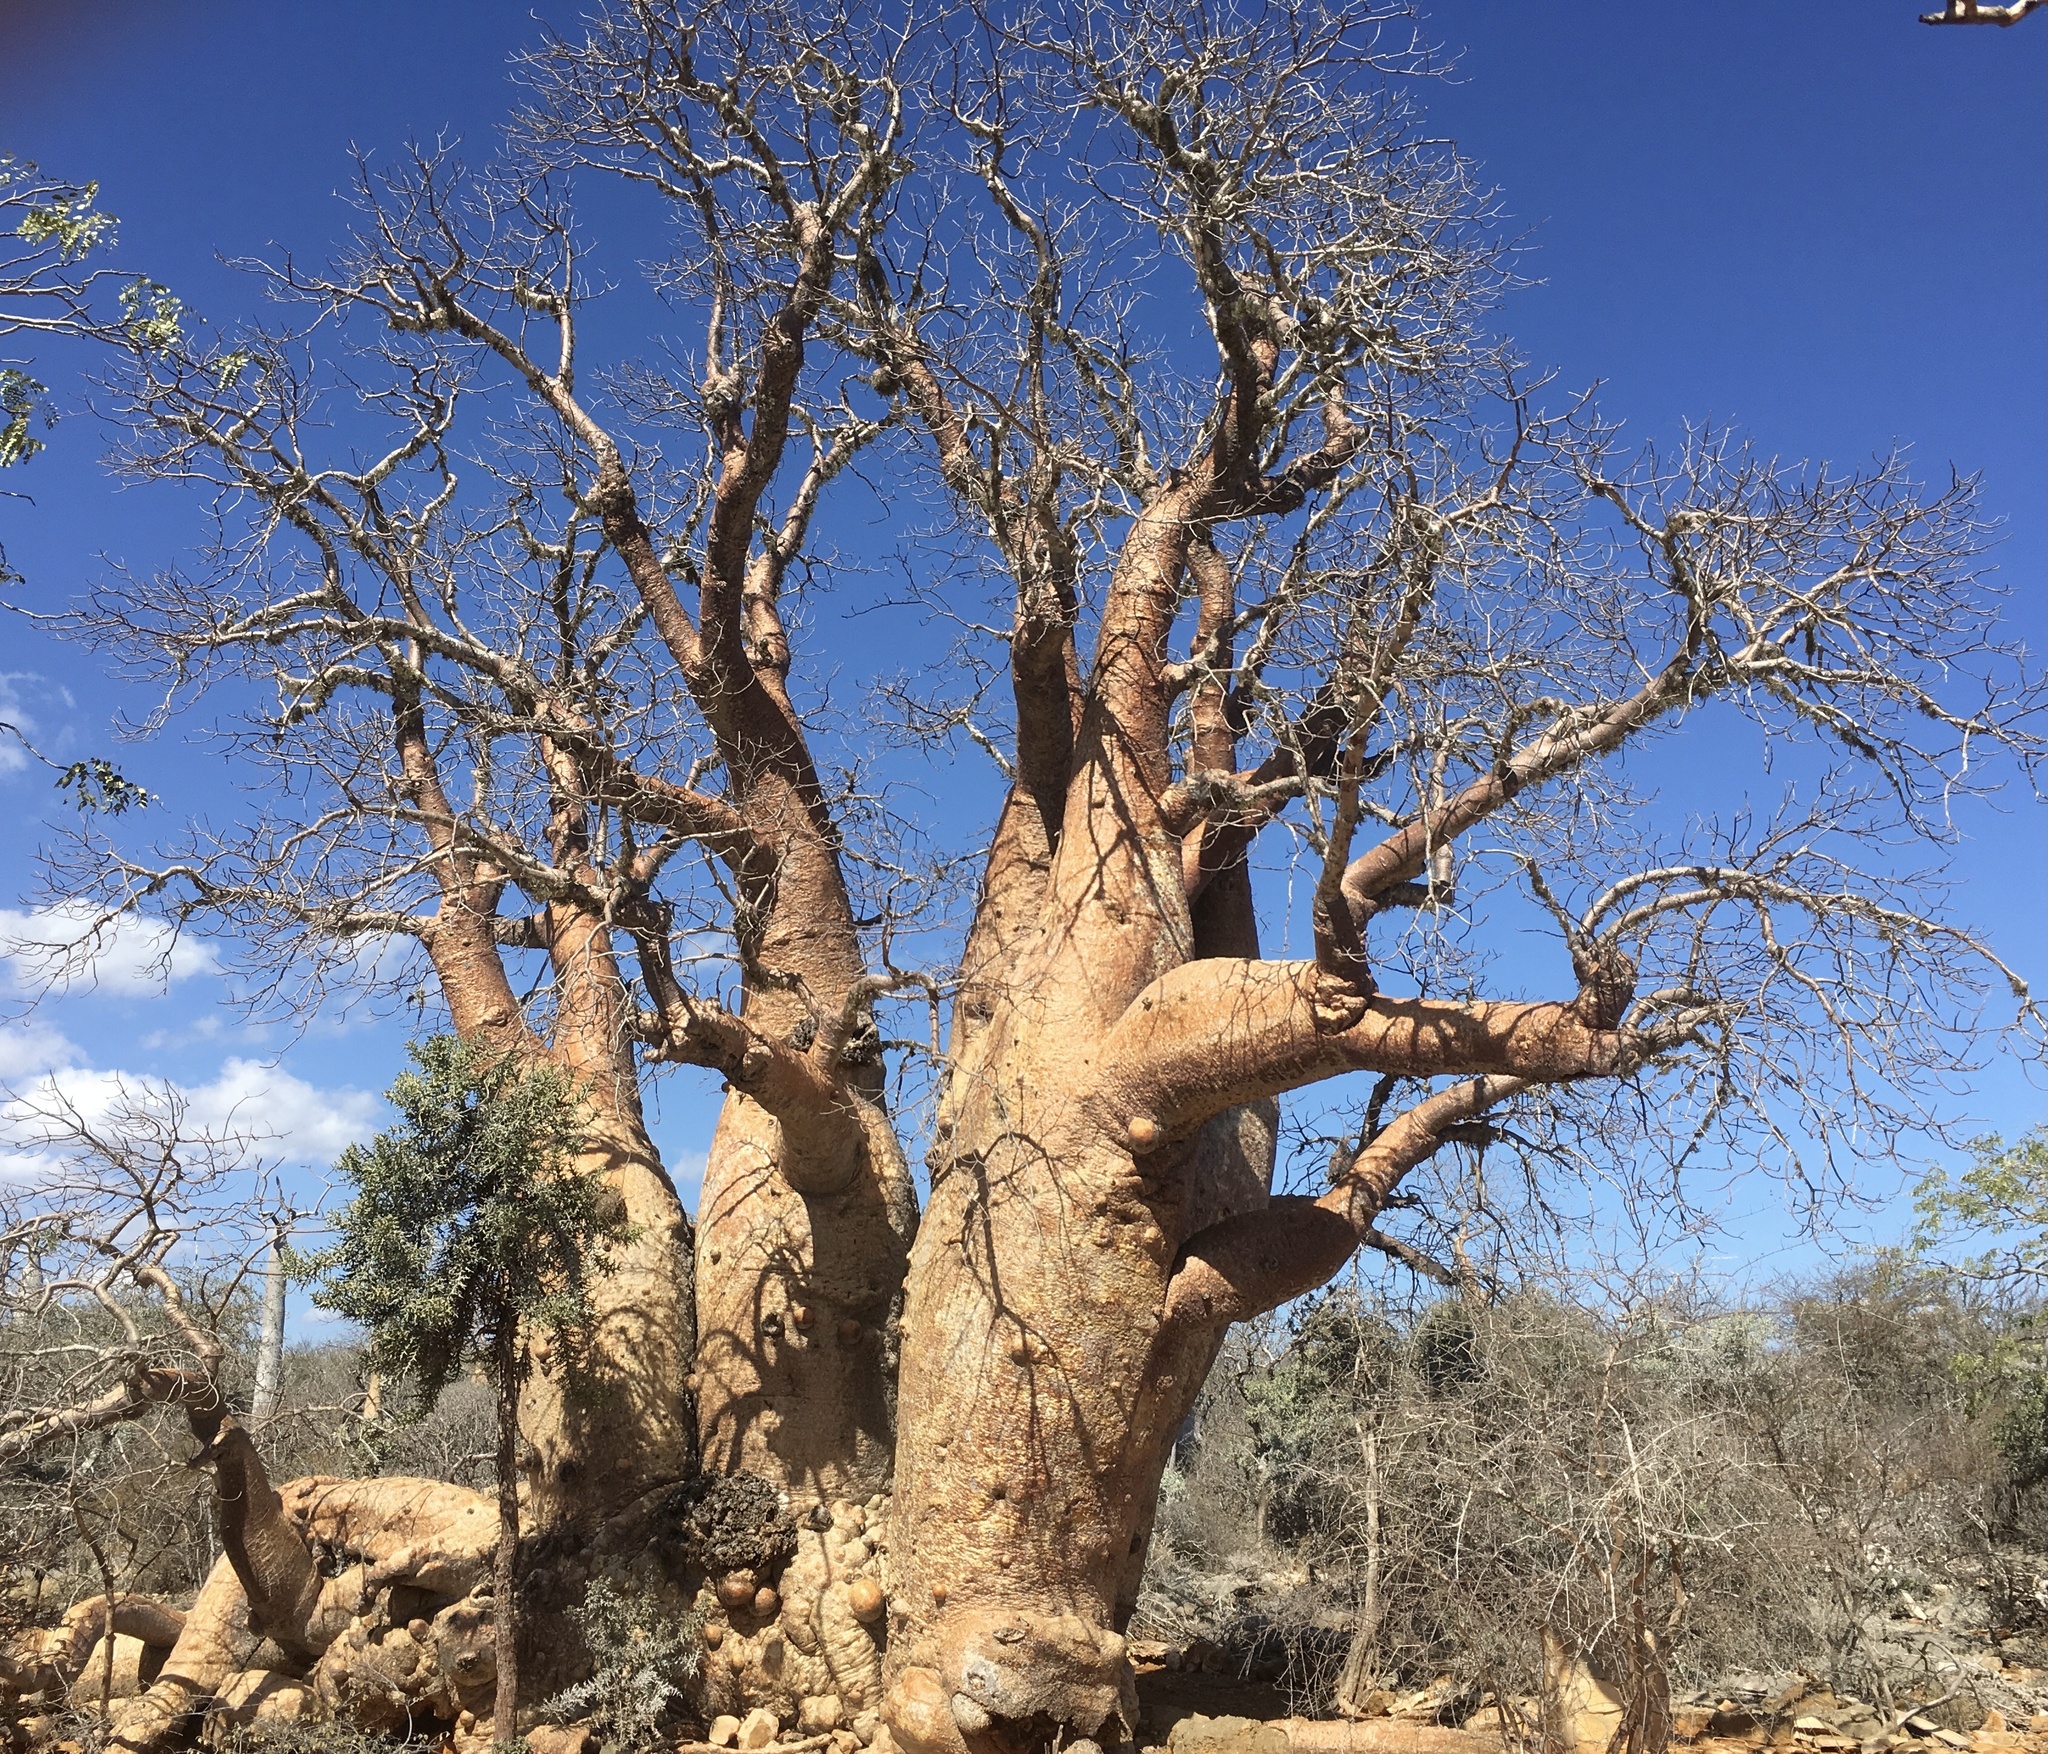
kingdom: Plantae
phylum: Tracheophyta
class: Magnoliopsida
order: Malvales
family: Malvaceae
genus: Adansonia
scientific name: Adansonia rubrostipa
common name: Fony baobab
